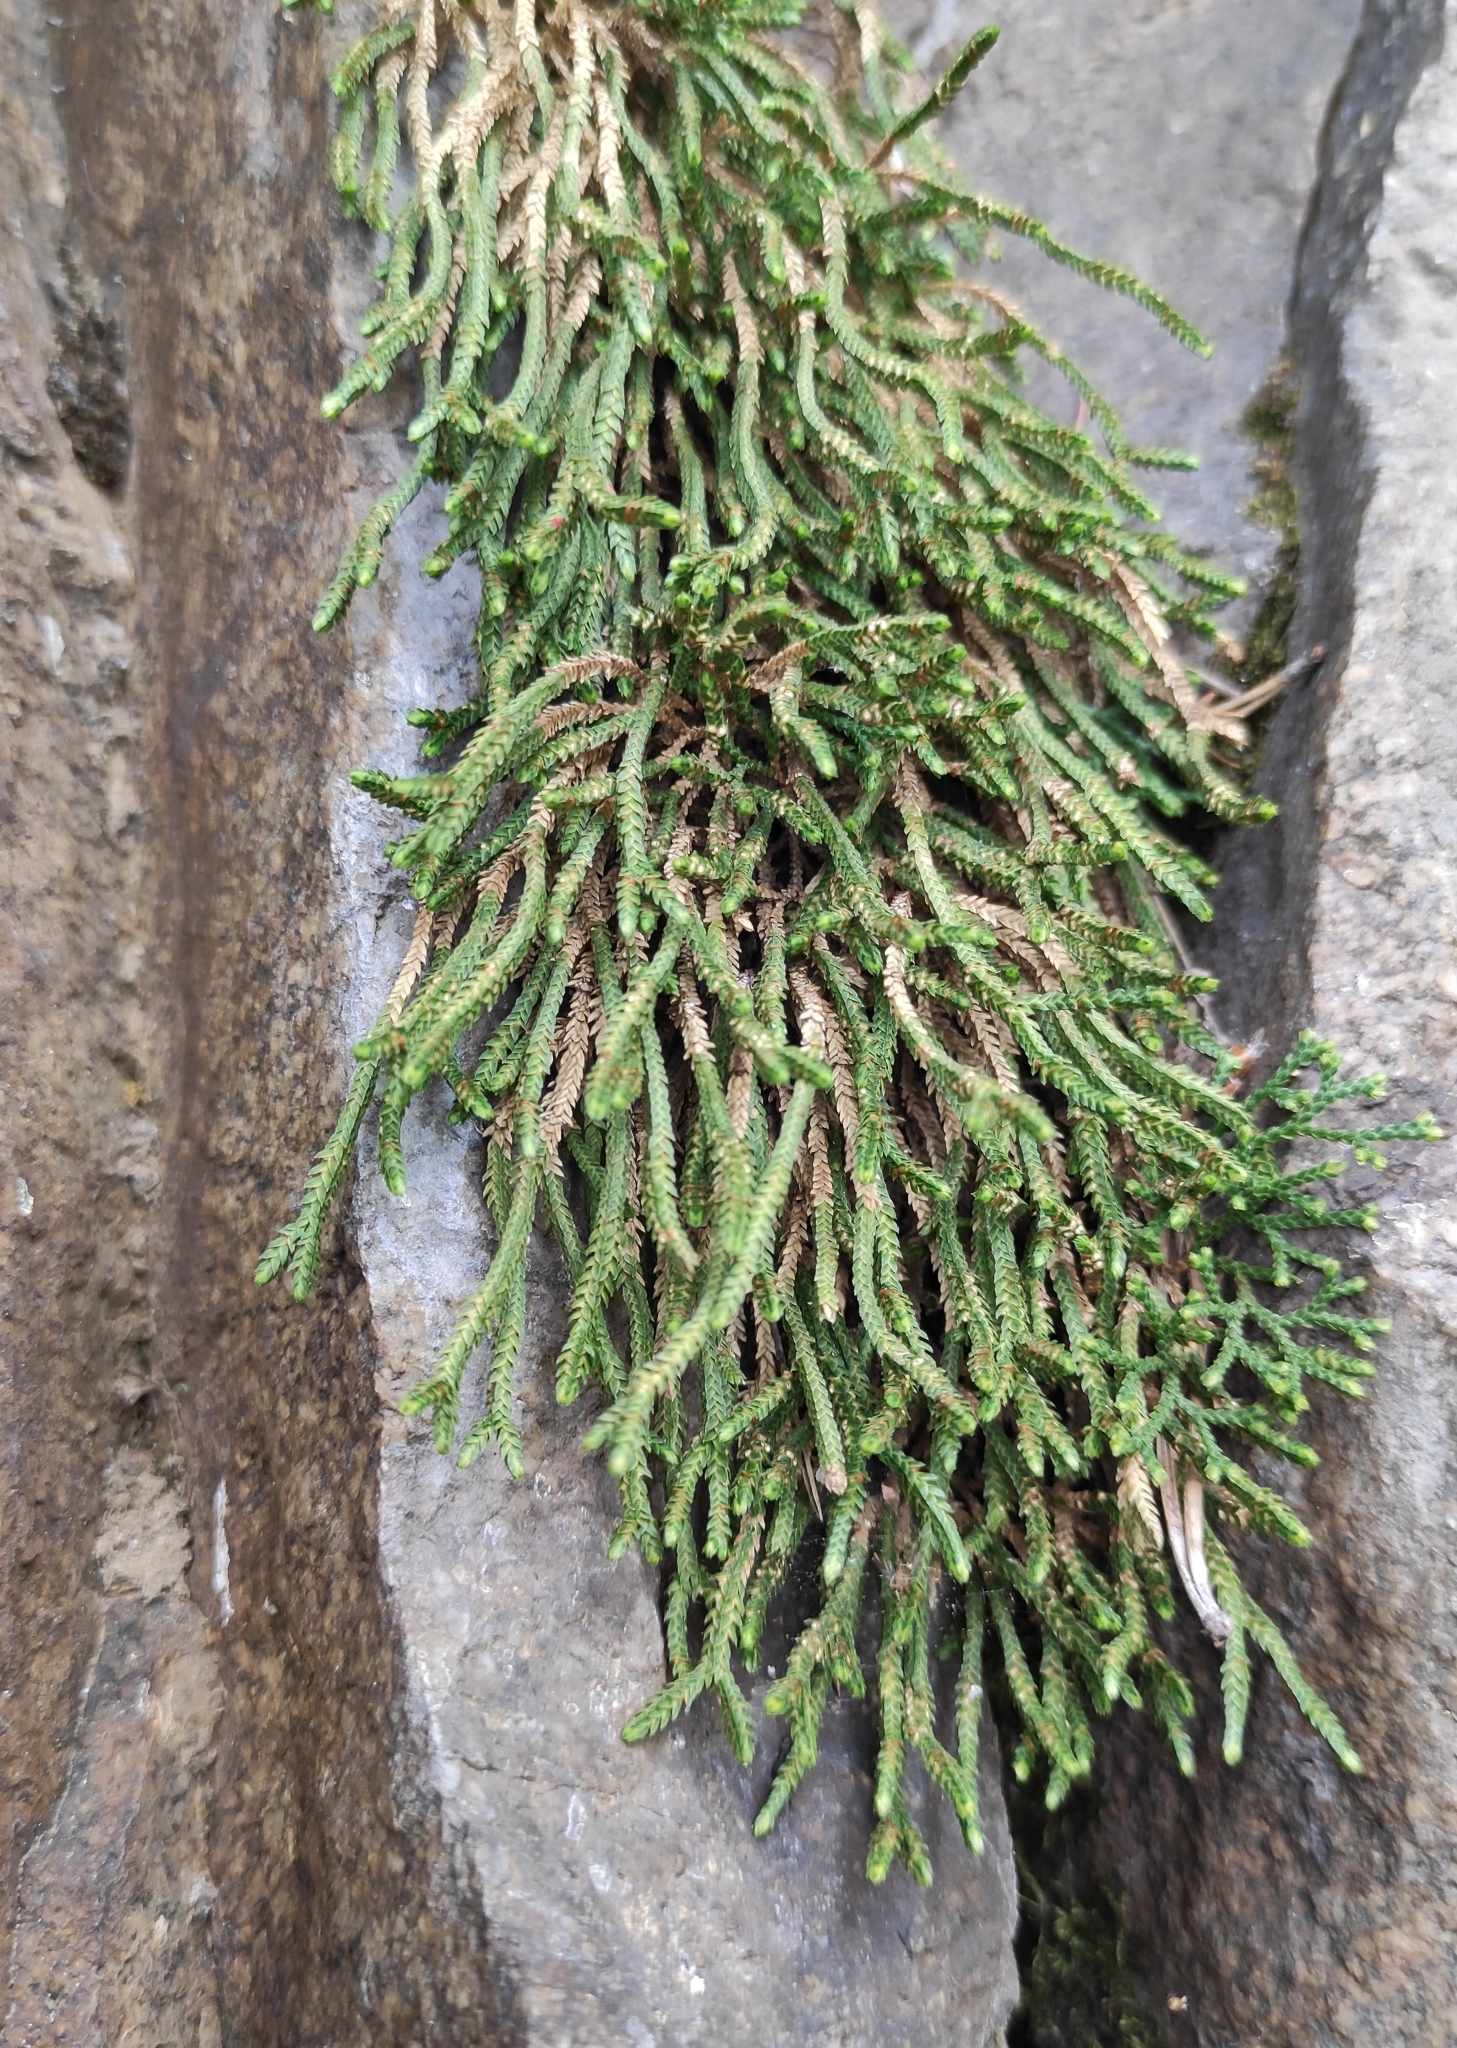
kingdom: Plantae
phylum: Tracheophyta
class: Lycopodiopsida
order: Selaginellales
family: Selaginellaceae
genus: Selaginella
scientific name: Selaginella sanguinolenta
